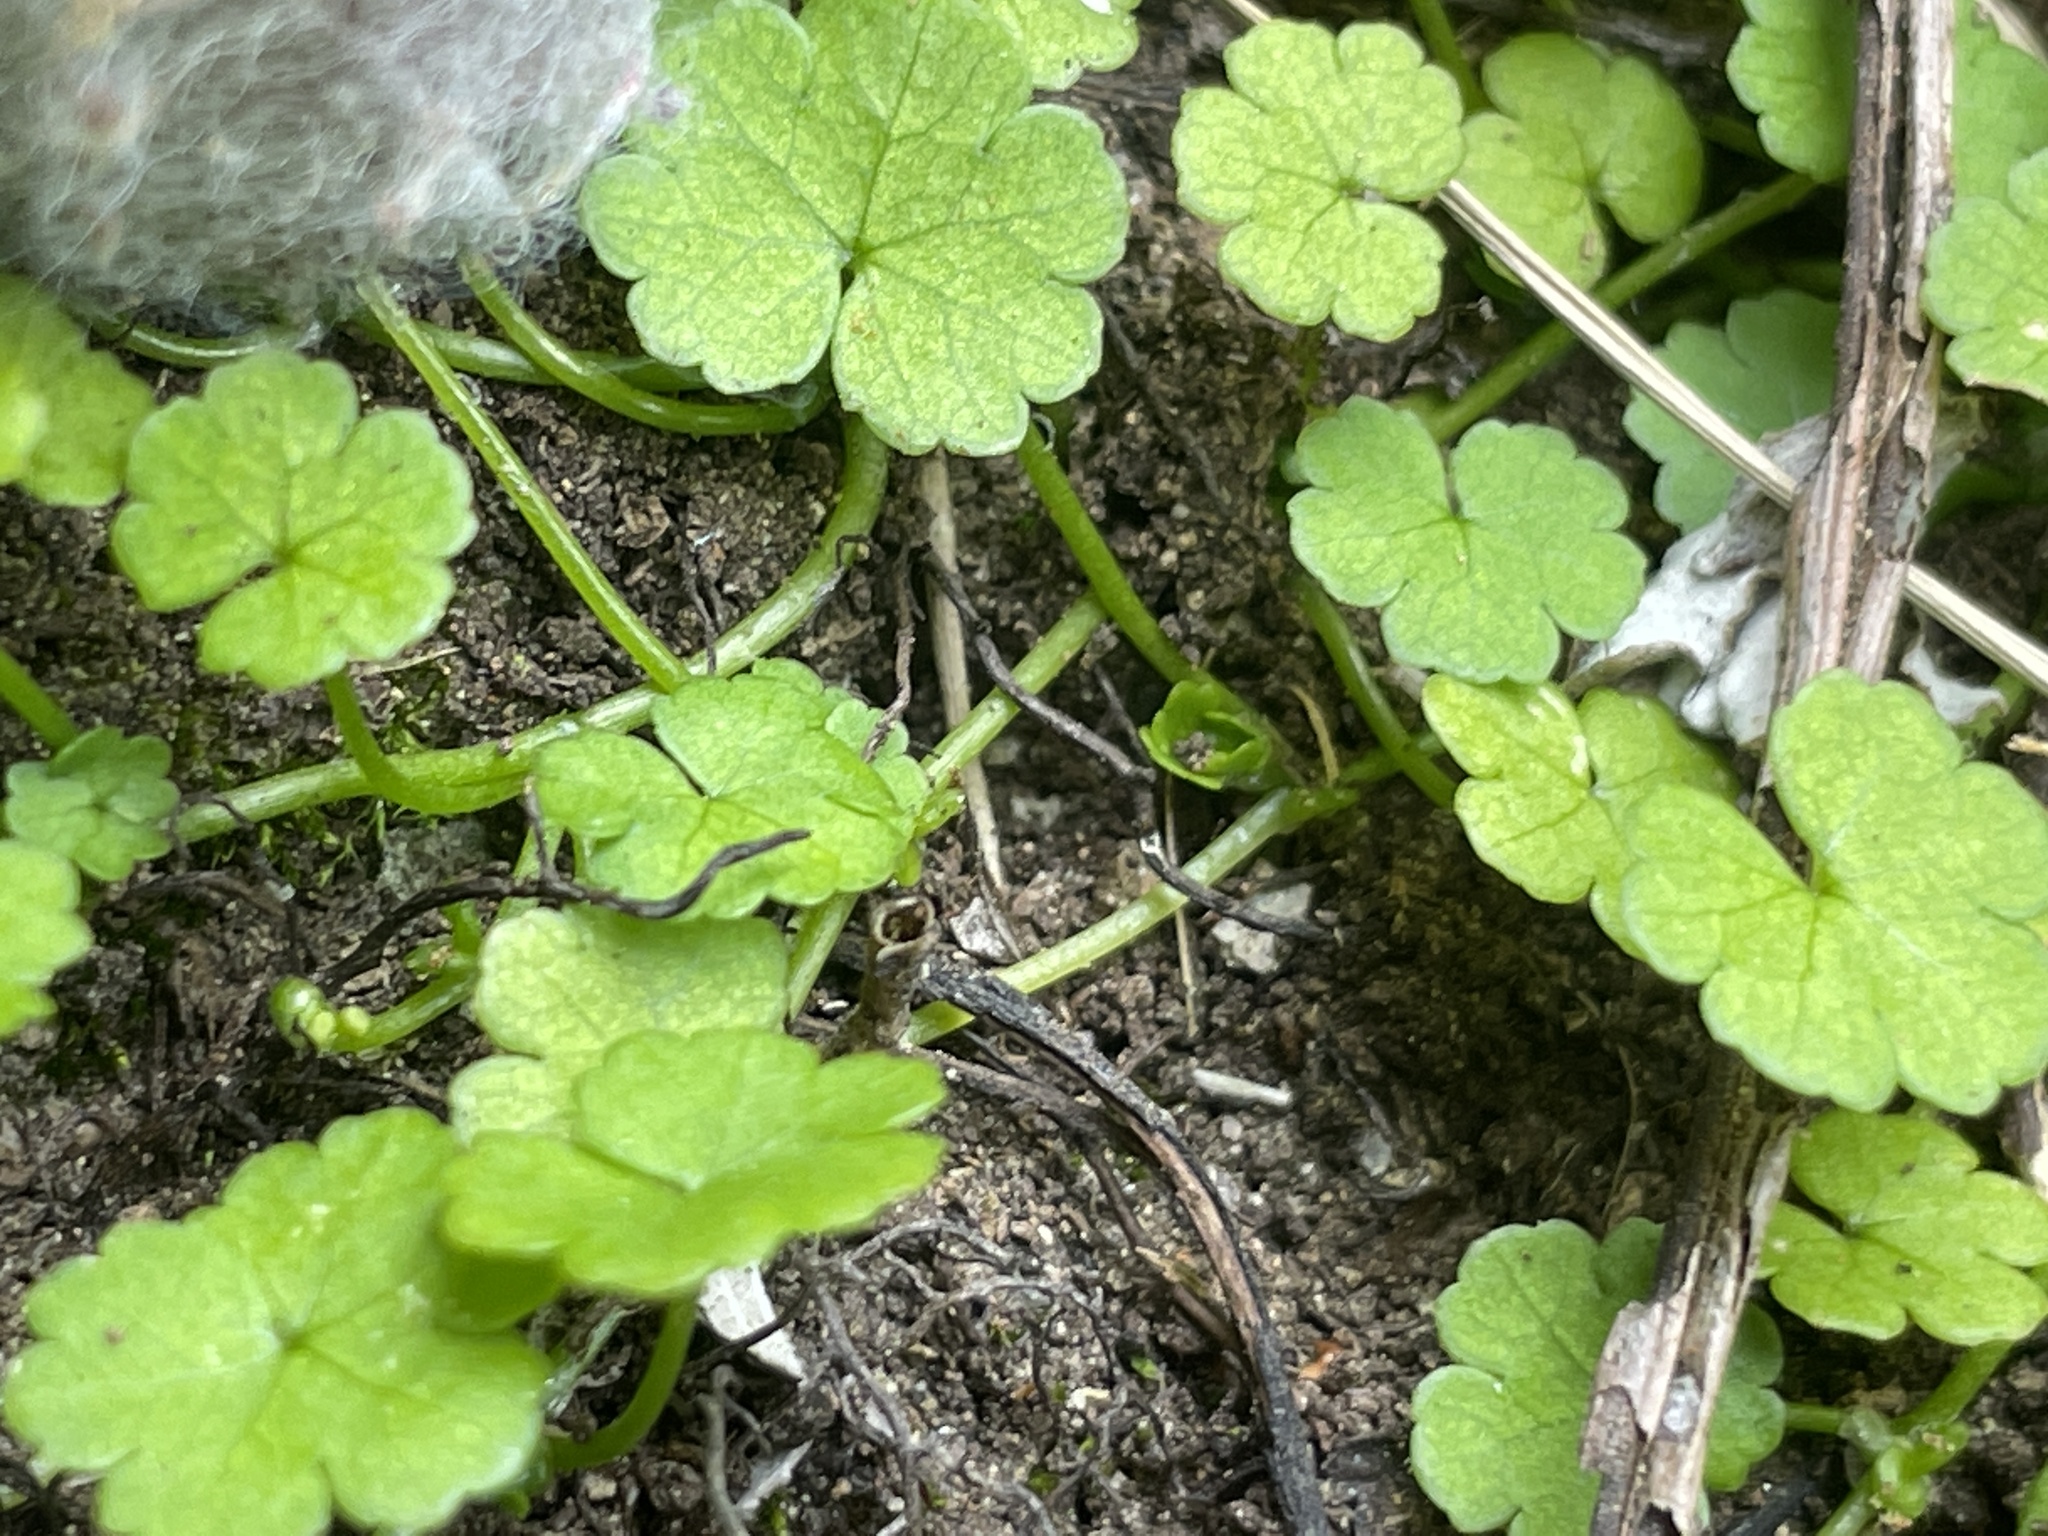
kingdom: Plantae
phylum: Tracheophyta
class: Magnoliopsida
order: Apiales
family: Araliaceae
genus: Hydrocotyle
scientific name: Hydrocotyle heteromeria
